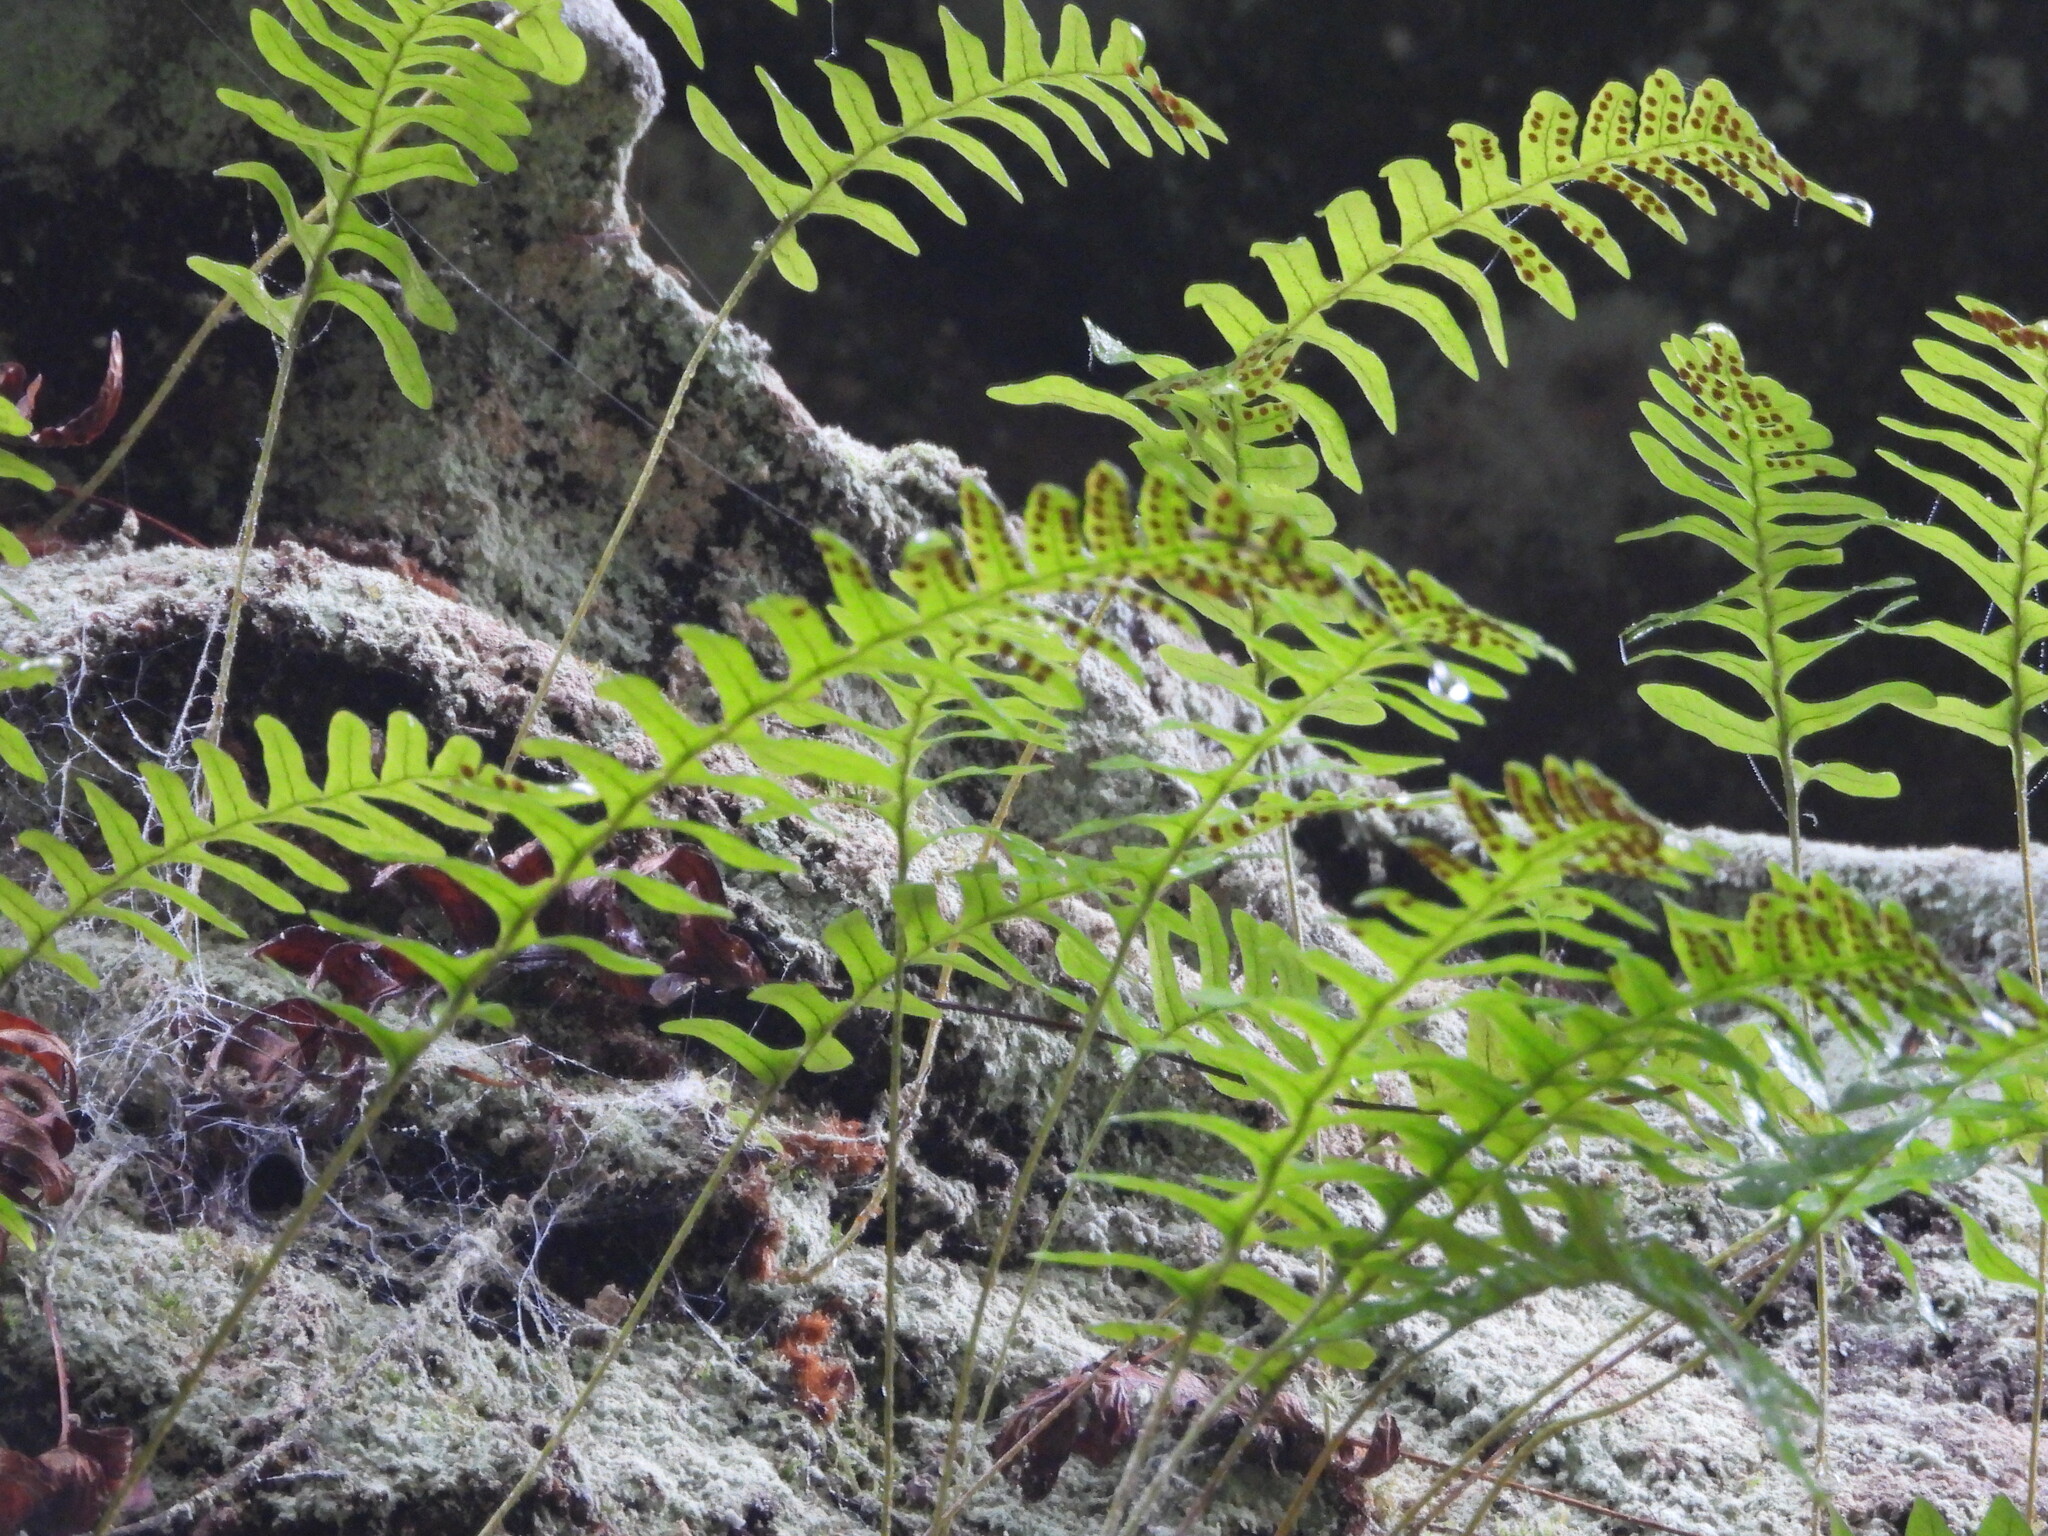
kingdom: Plantae
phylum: Tracheophyta
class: Polypodiopsida
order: Polypodiales
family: Polypodiaceae
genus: Polypodium
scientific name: Polypodium virginianum
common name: American wall fern
